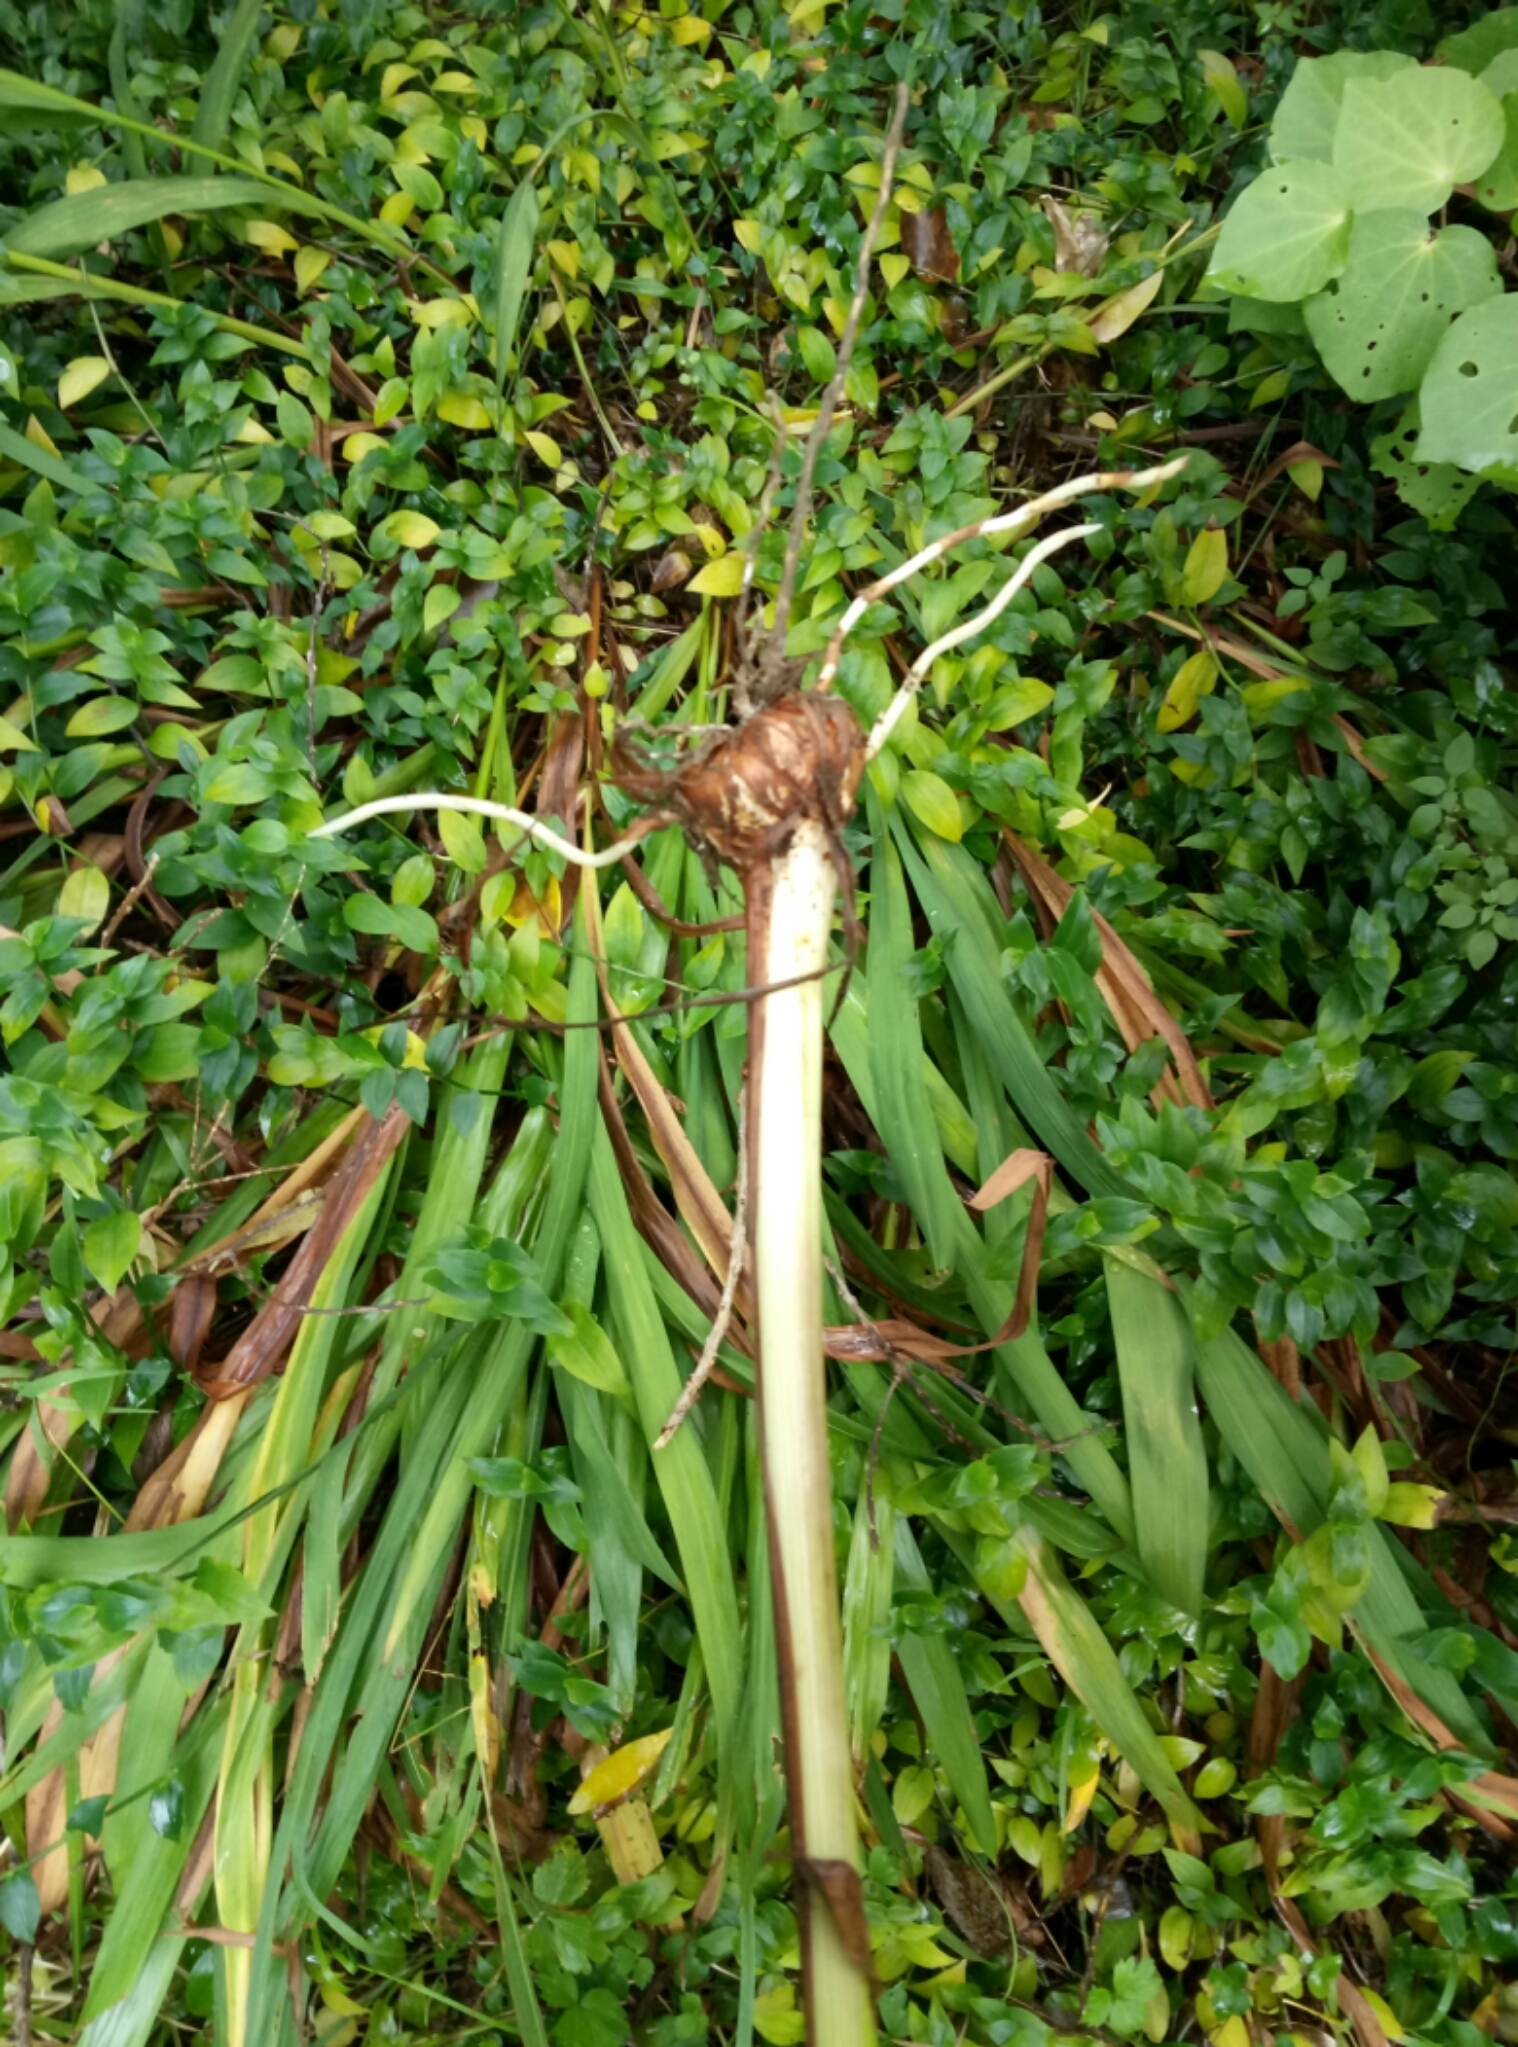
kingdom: Plantae
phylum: Tracheophyta
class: Liliopsida
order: Asparagales
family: Iridaceae
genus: Crocosmia
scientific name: Crocosmia crocosmiiflora
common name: Montbretia
